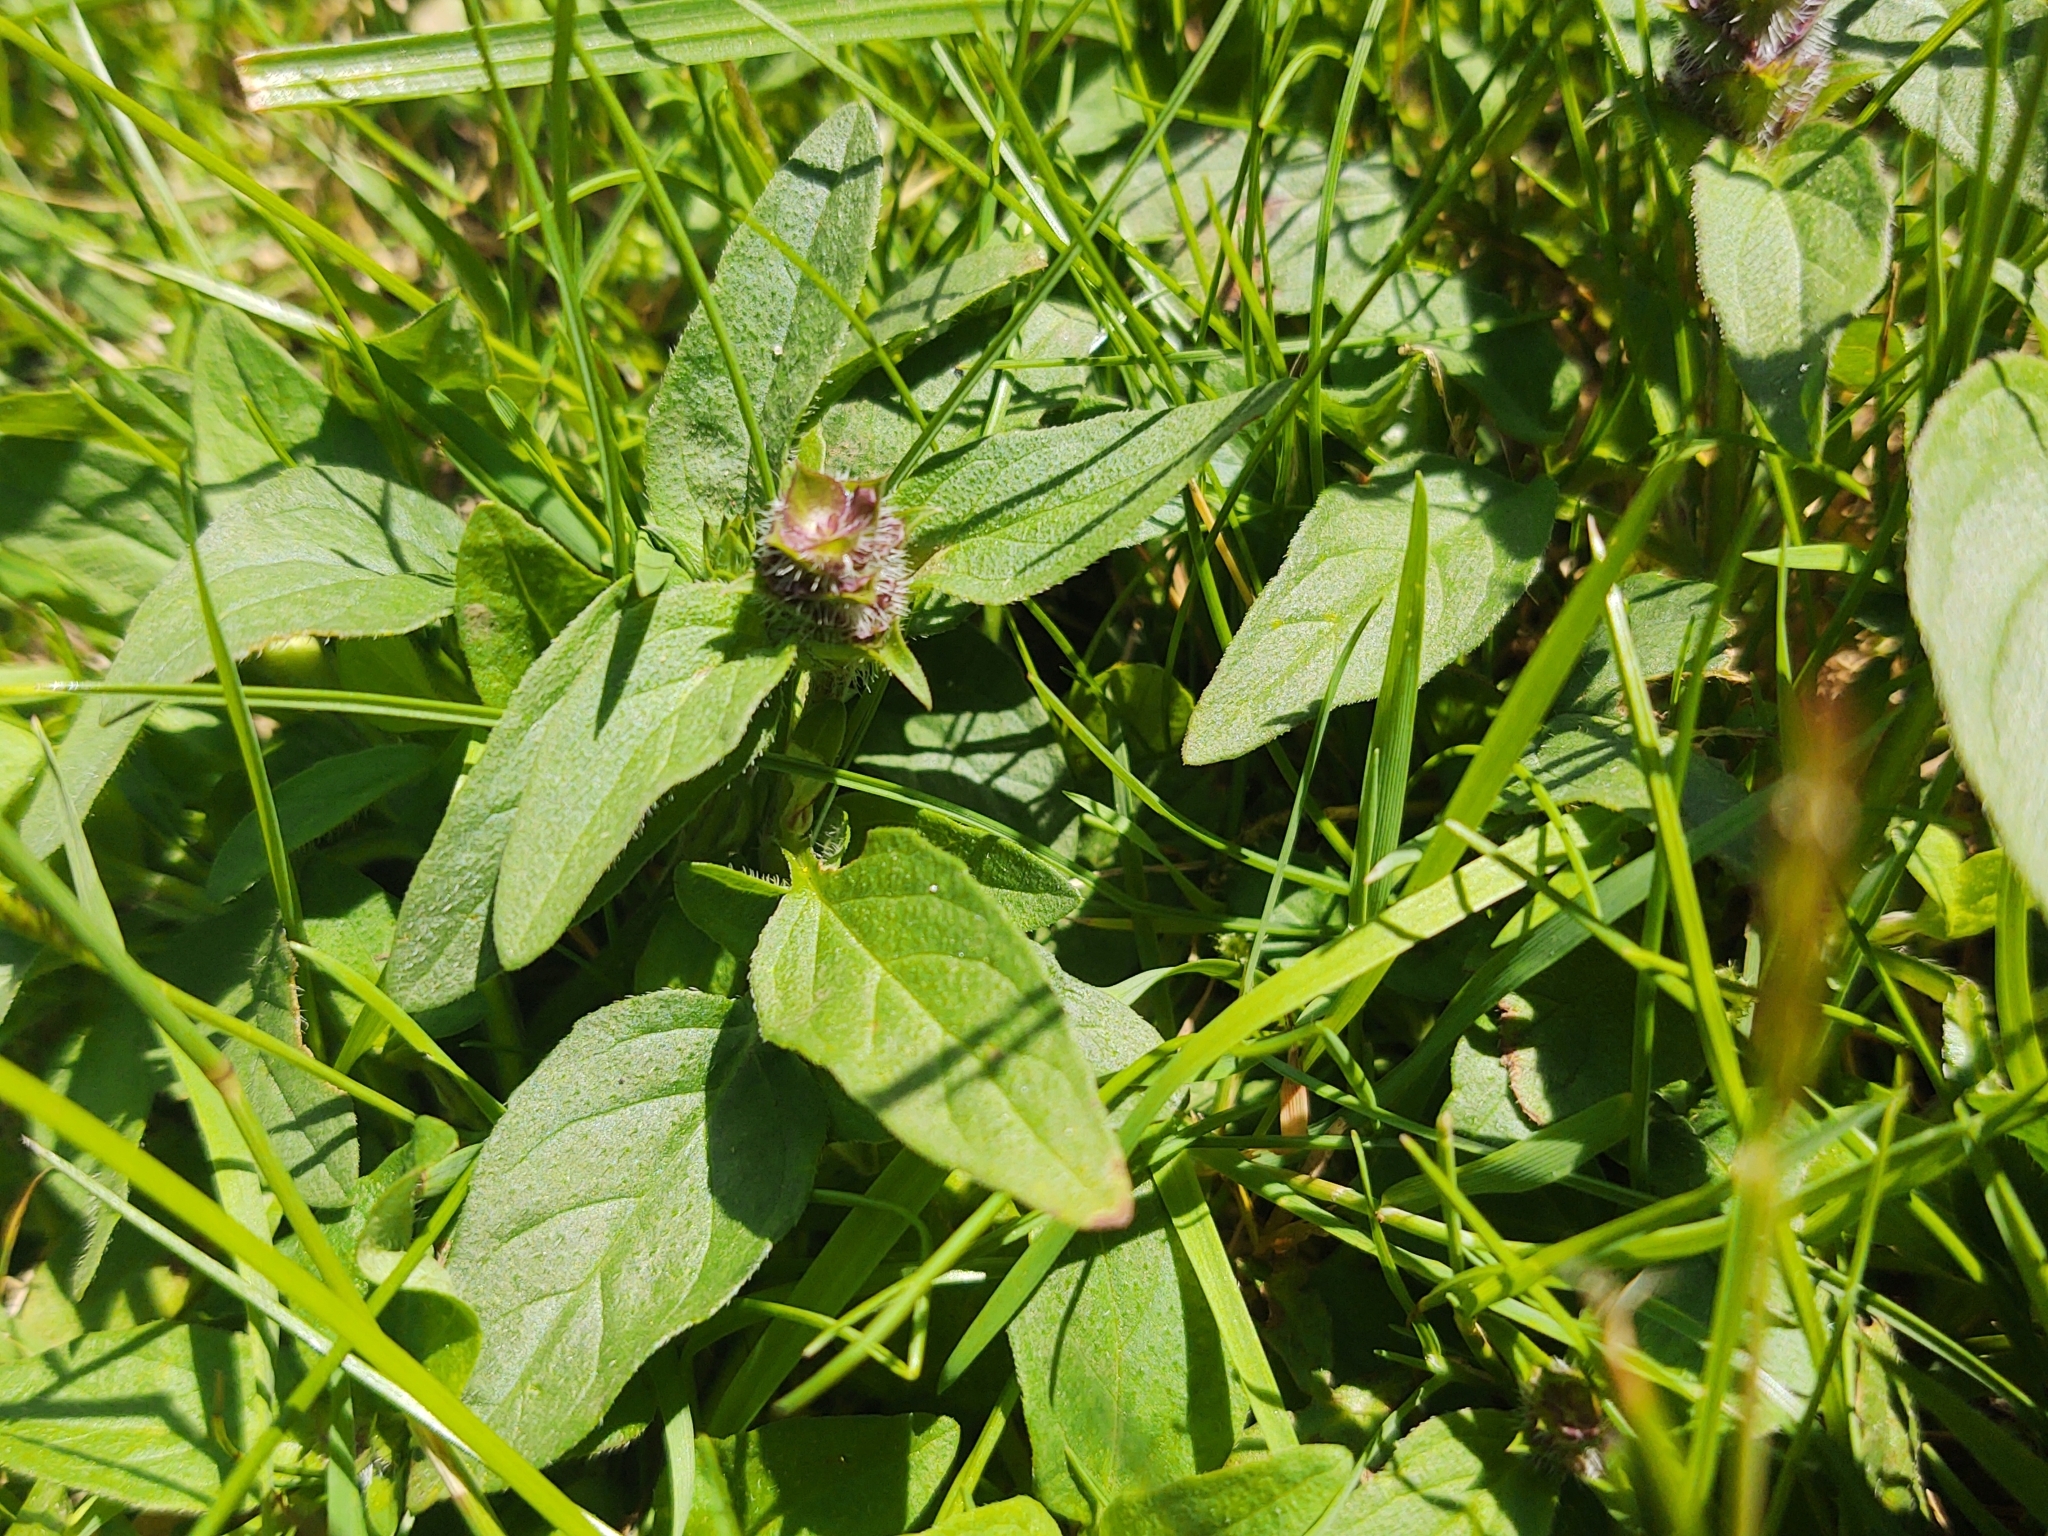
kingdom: Plantae
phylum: Tracheophyta
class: Magnoliopsida
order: Lamiales
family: Lamiaceae
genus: Prunella
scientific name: Prunella vulgaris
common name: Heal-all
